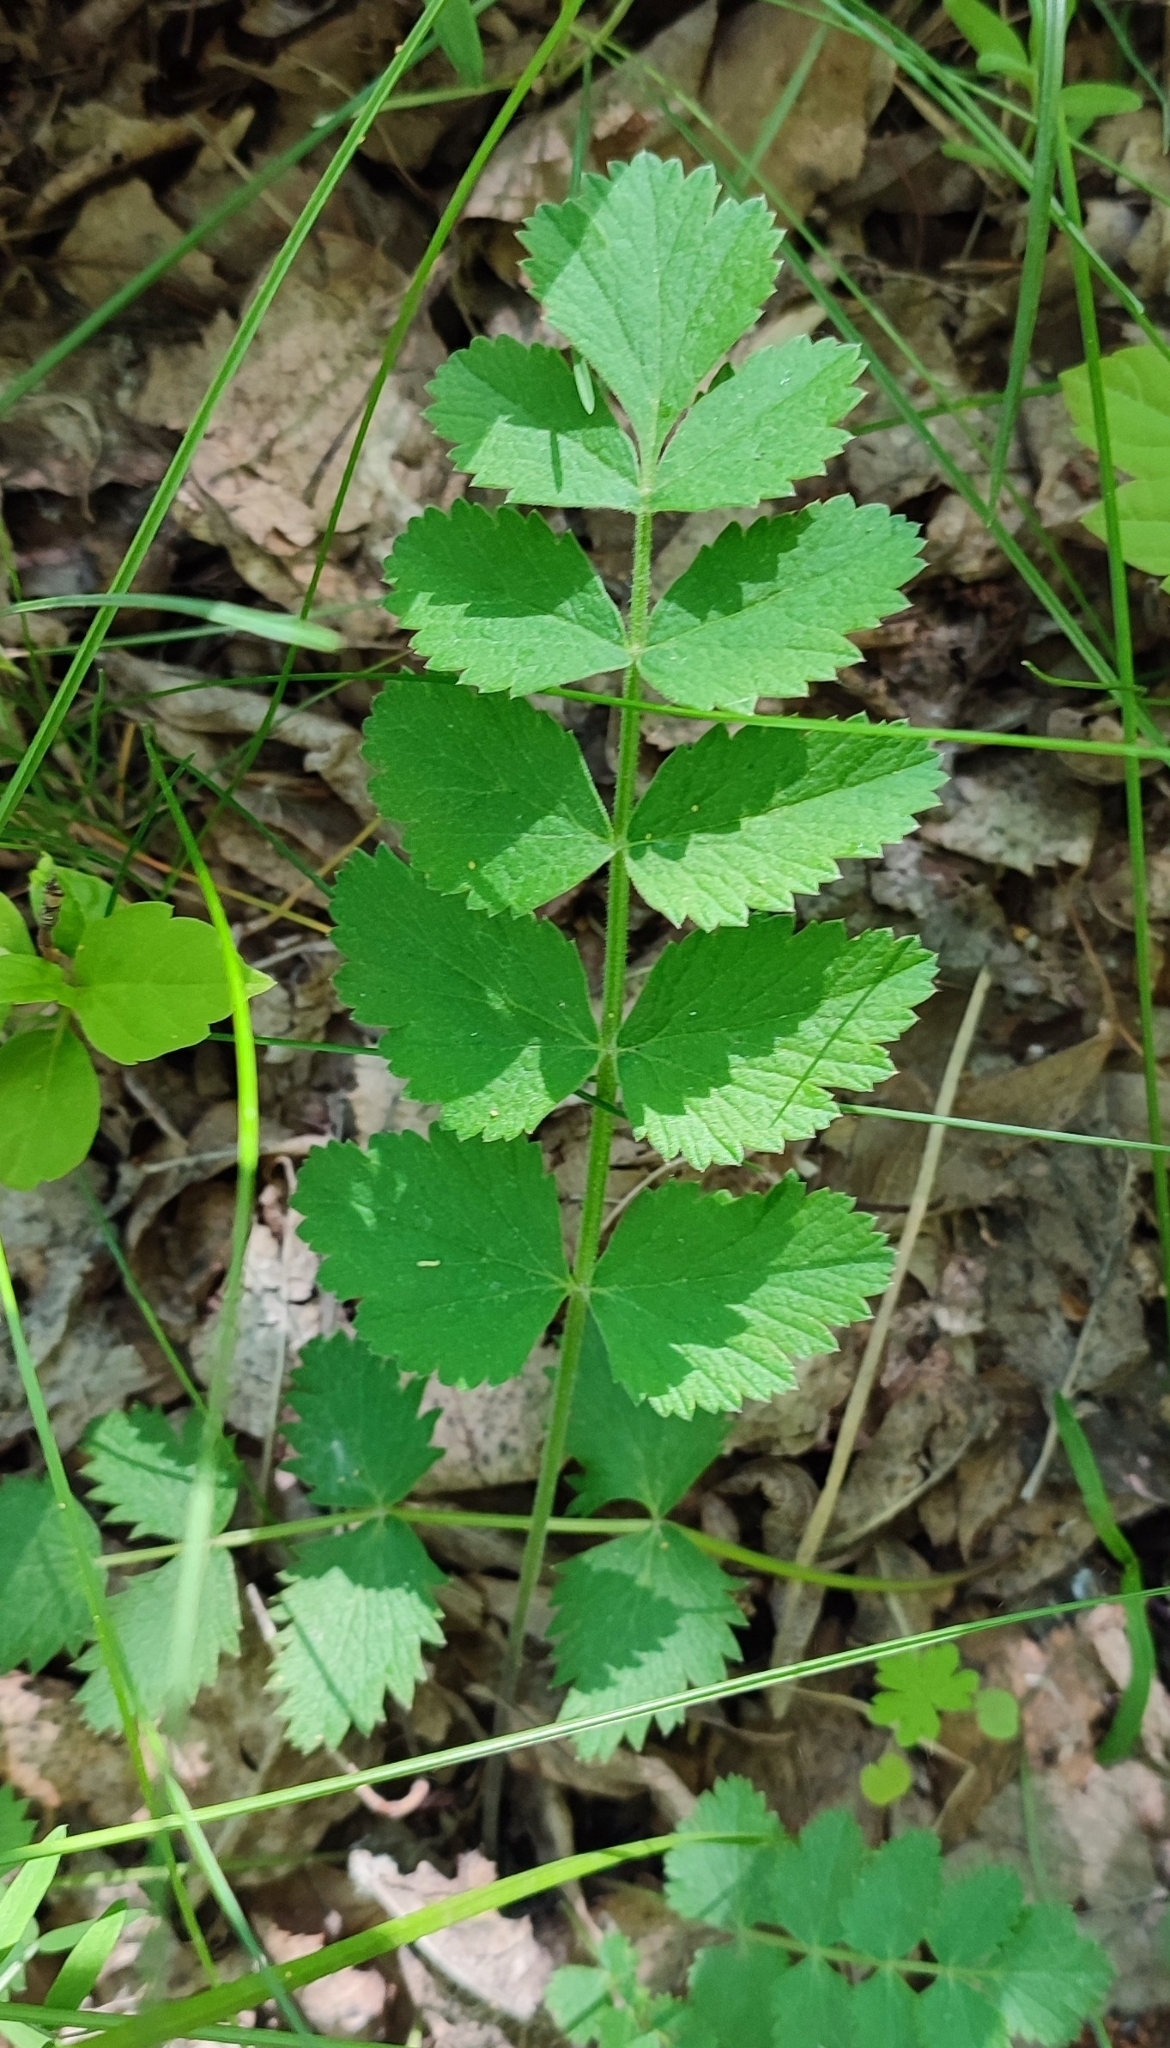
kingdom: Plantae
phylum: Tracheophyta
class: Magnoliopsida
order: Apiales
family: Apiaceae
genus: Pimpinella
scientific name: Pimpinella saxifraga
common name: Burnet-saxifrage
